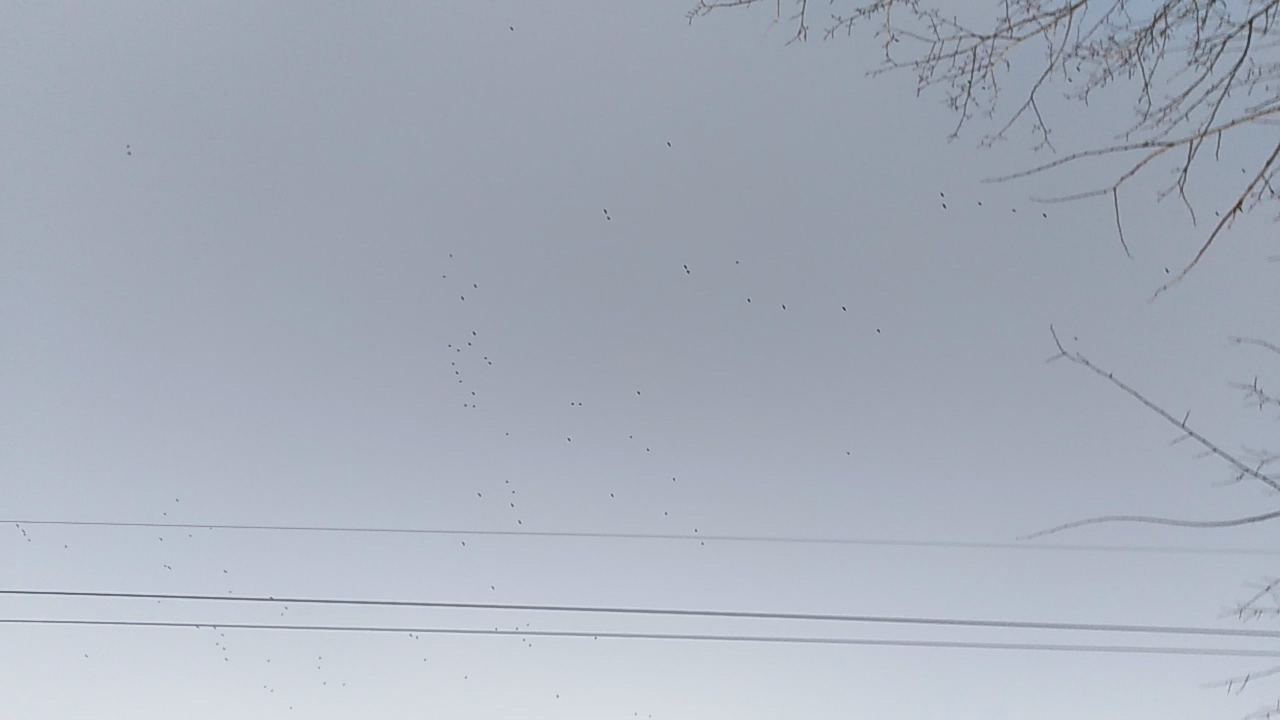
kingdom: Animalia
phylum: Chordata
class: Aves
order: Passeriformes
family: Corvidae
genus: Coloeus
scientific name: Coloeus monedula
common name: Western jackdaw
